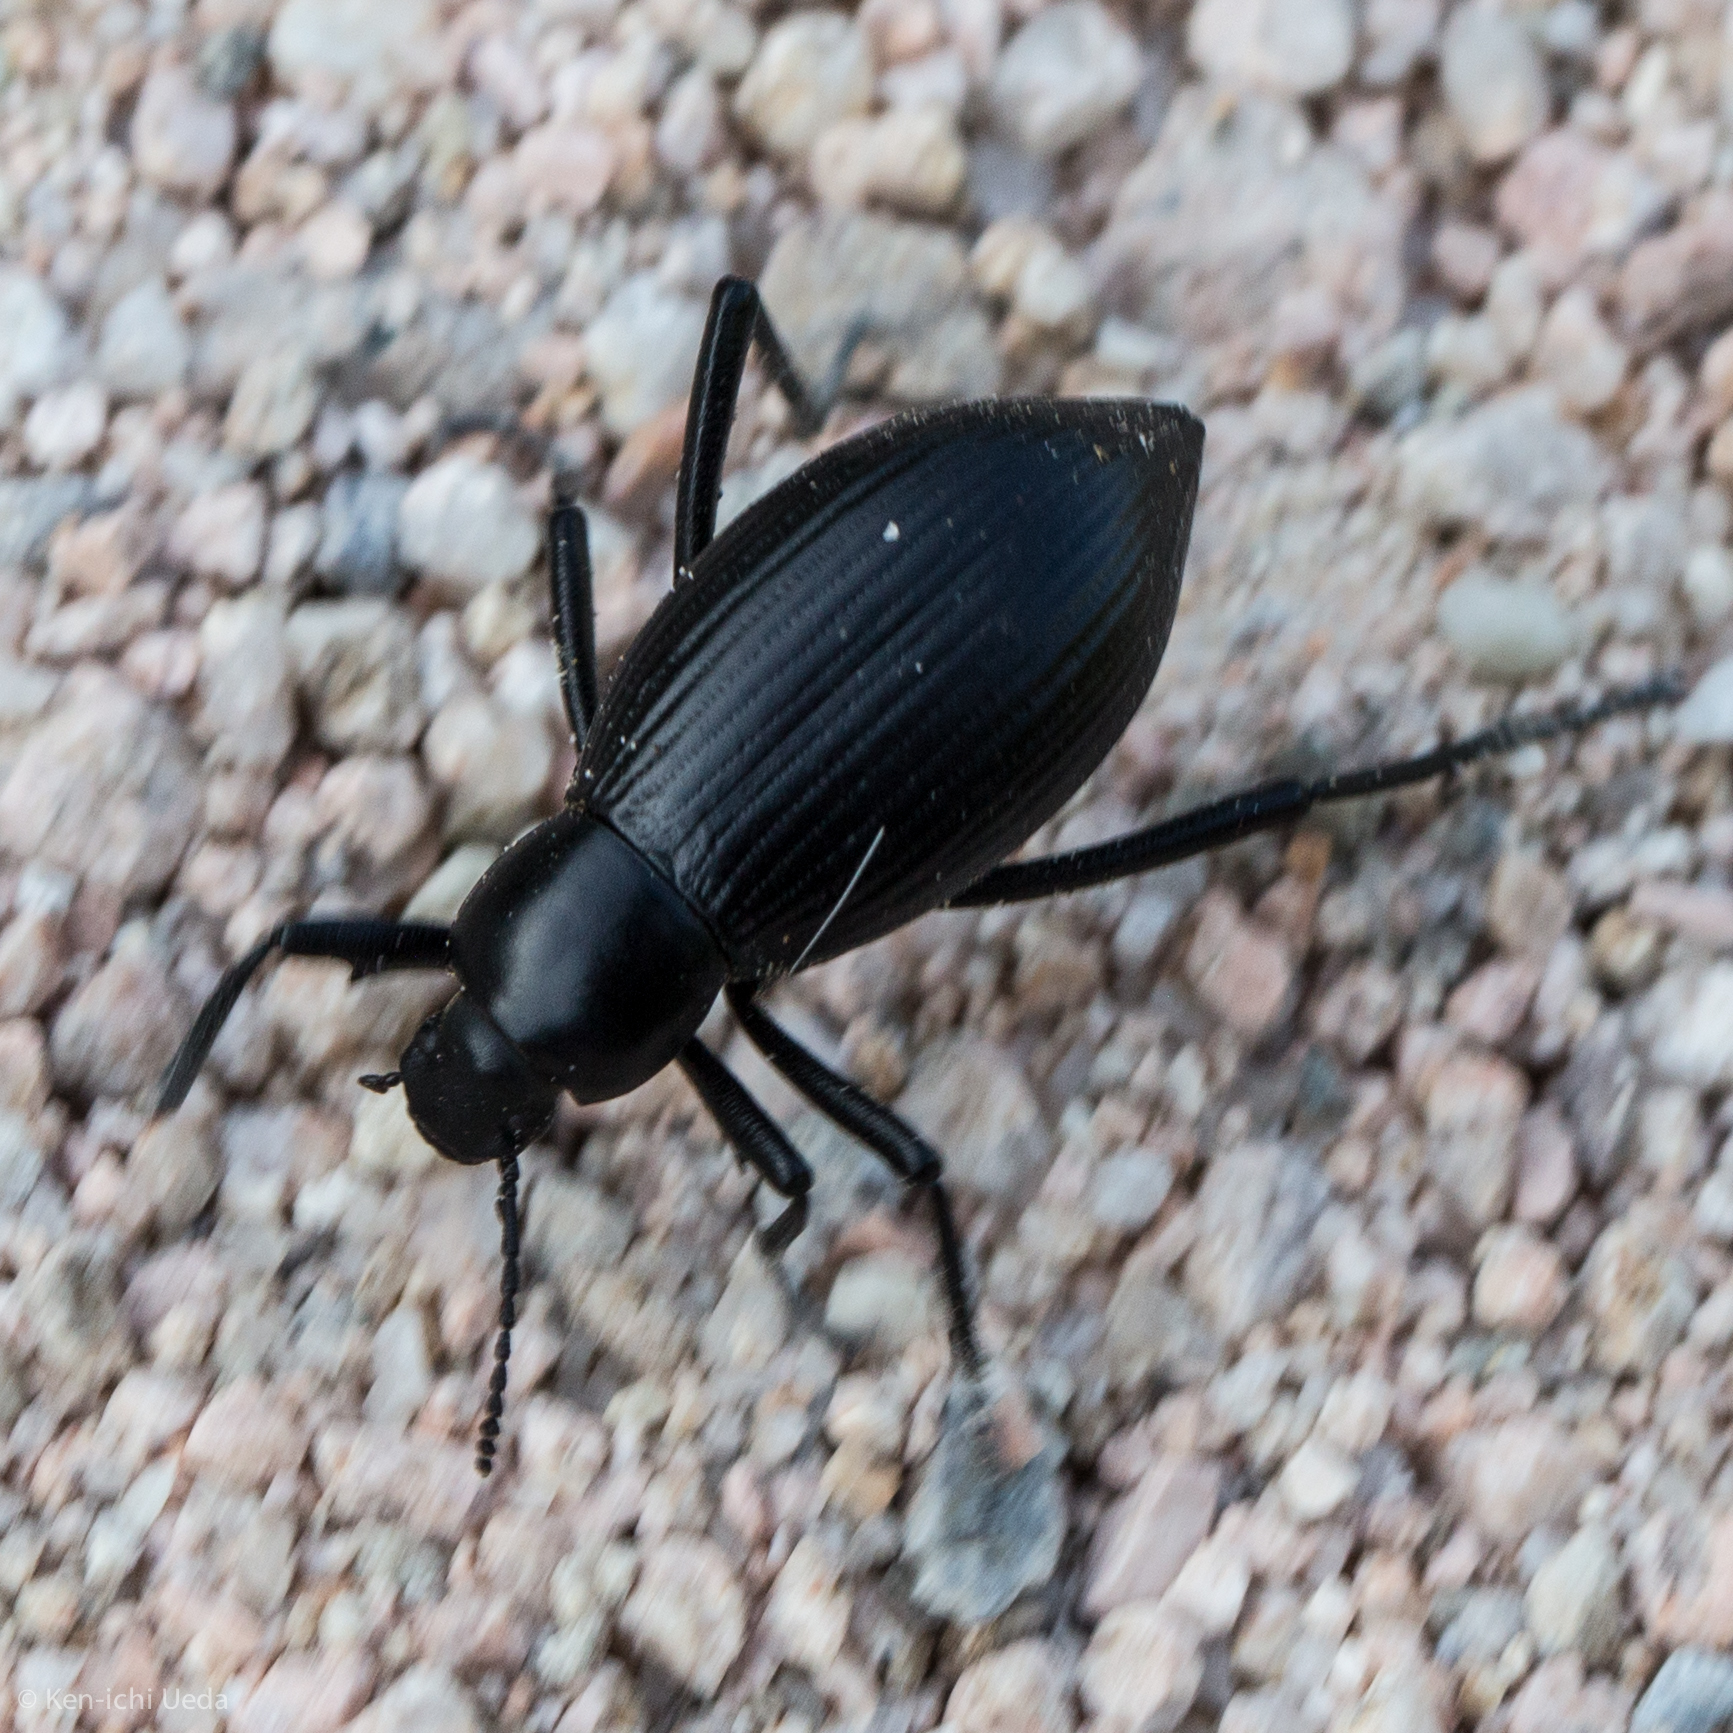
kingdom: Animalia
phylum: Arthropoda
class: Insecta
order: Coleoptera
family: Tenebrionidae
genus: Eleodes
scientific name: Eleodes eschscholtzii
